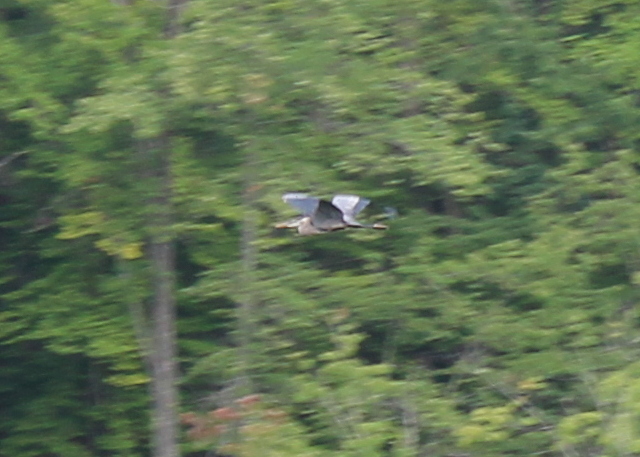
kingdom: Animalia
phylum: Chordata
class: Aves
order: Pelecaniformes
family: Ardeidae
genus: Ardea
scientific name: Ardea herodias
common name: Great blue heron
